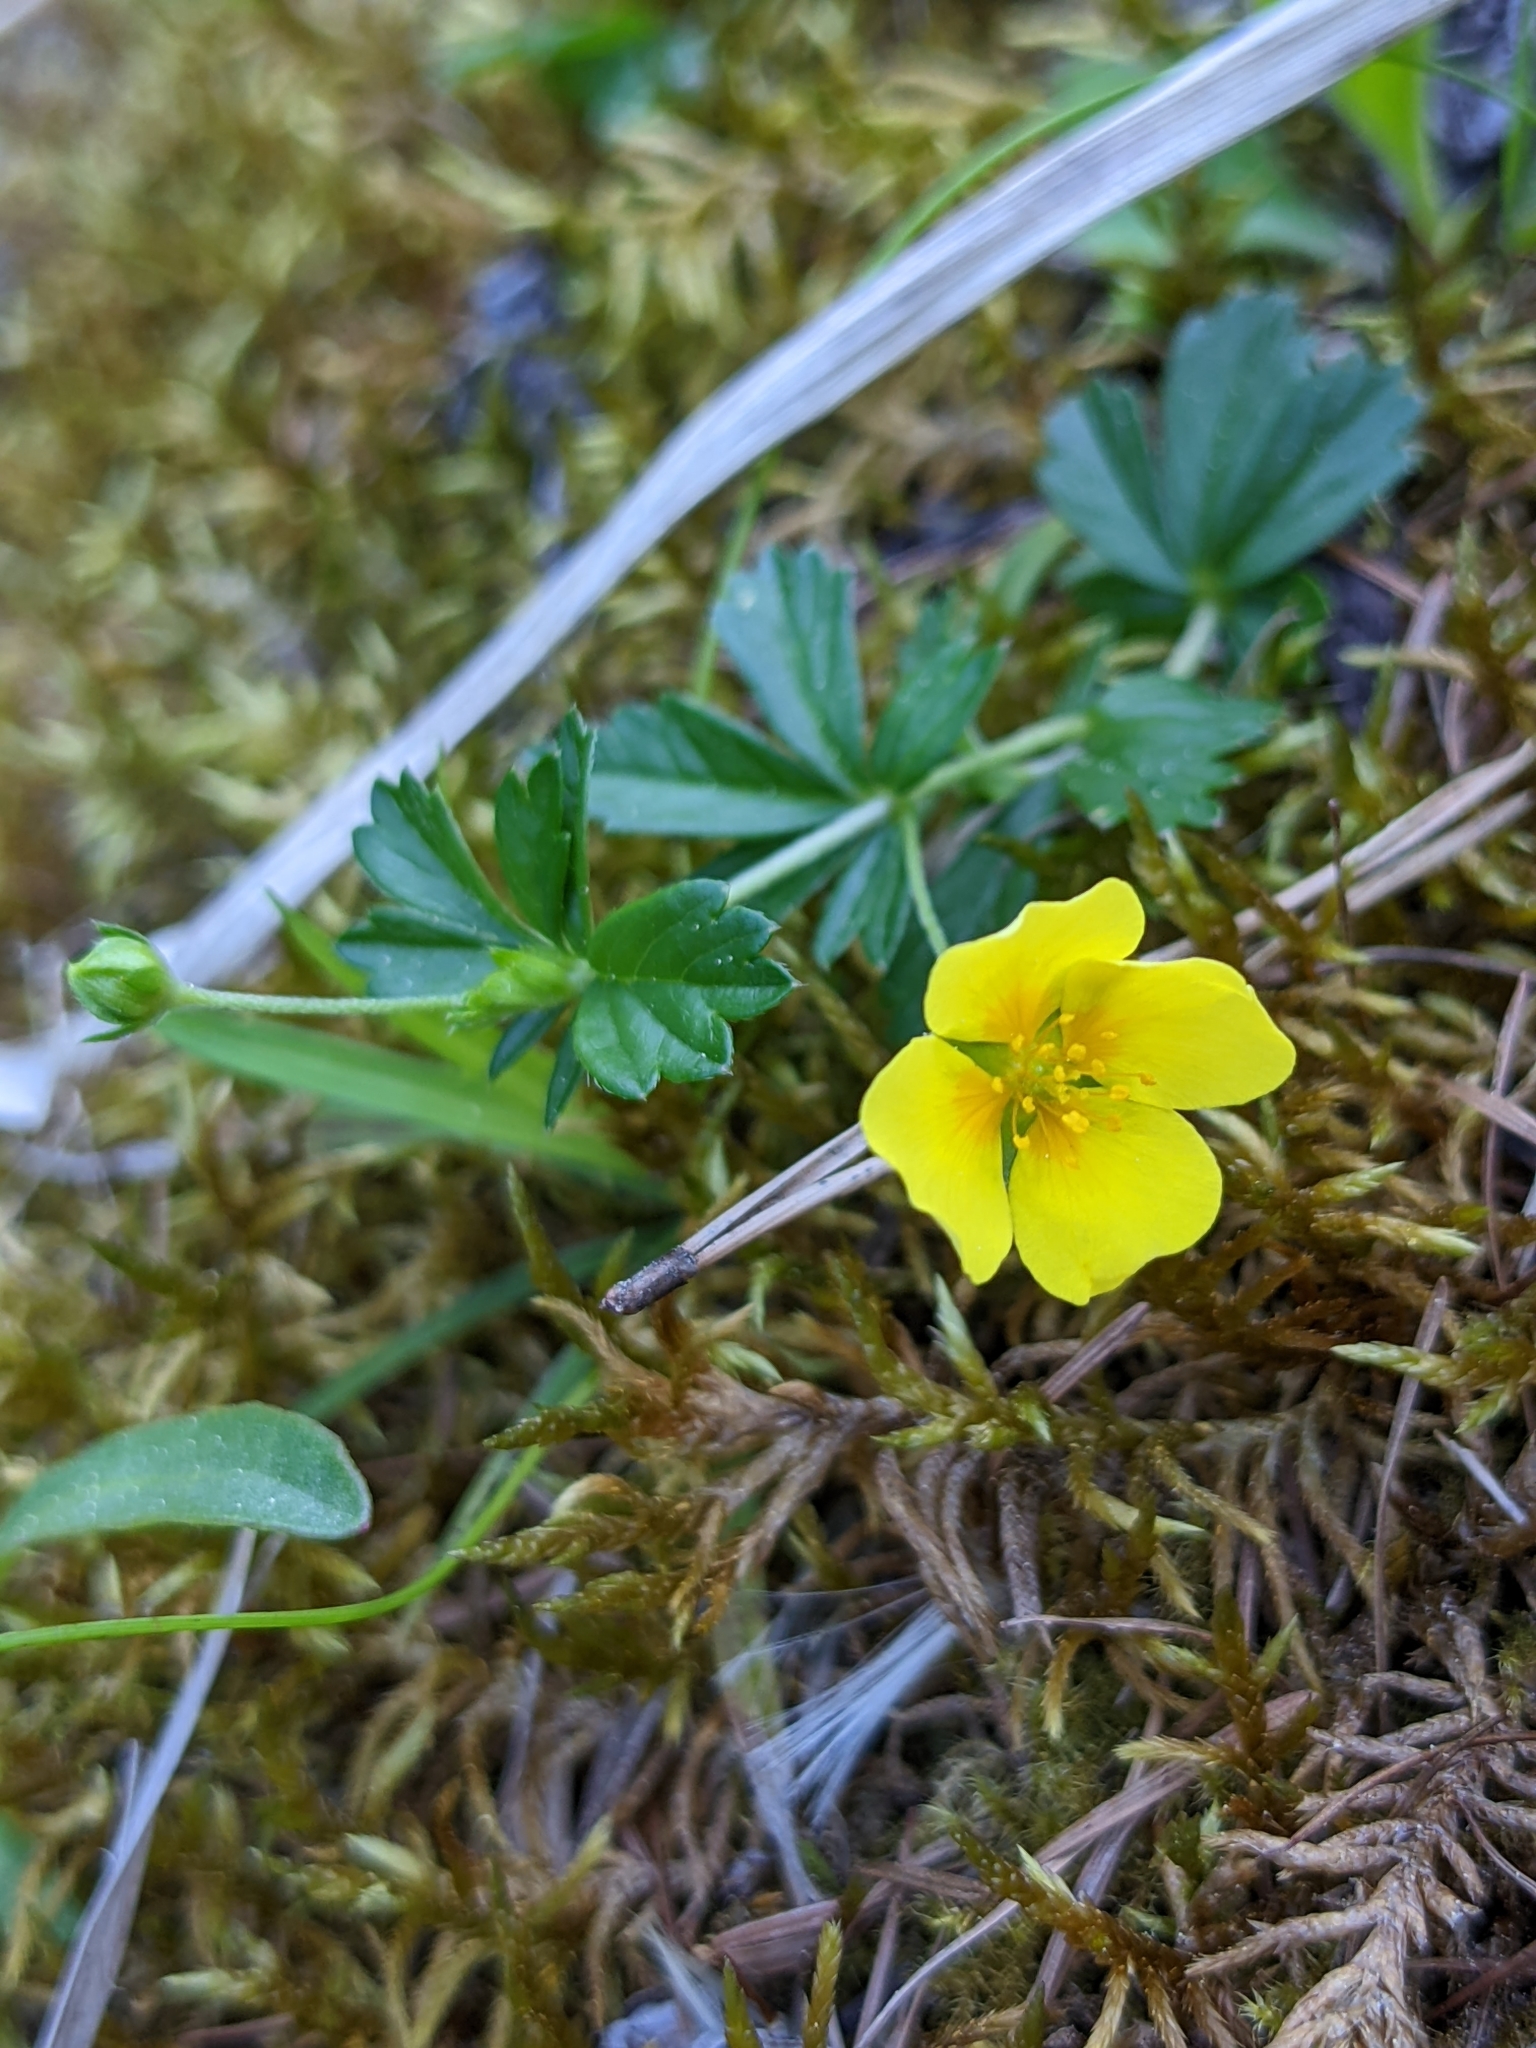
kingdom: Plantae
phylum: Tracheophyta
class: Magnoliopsida
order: Rosales
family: Rosaceae
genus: Potentilla
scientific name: Potentilla erecta
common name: Tormentil
